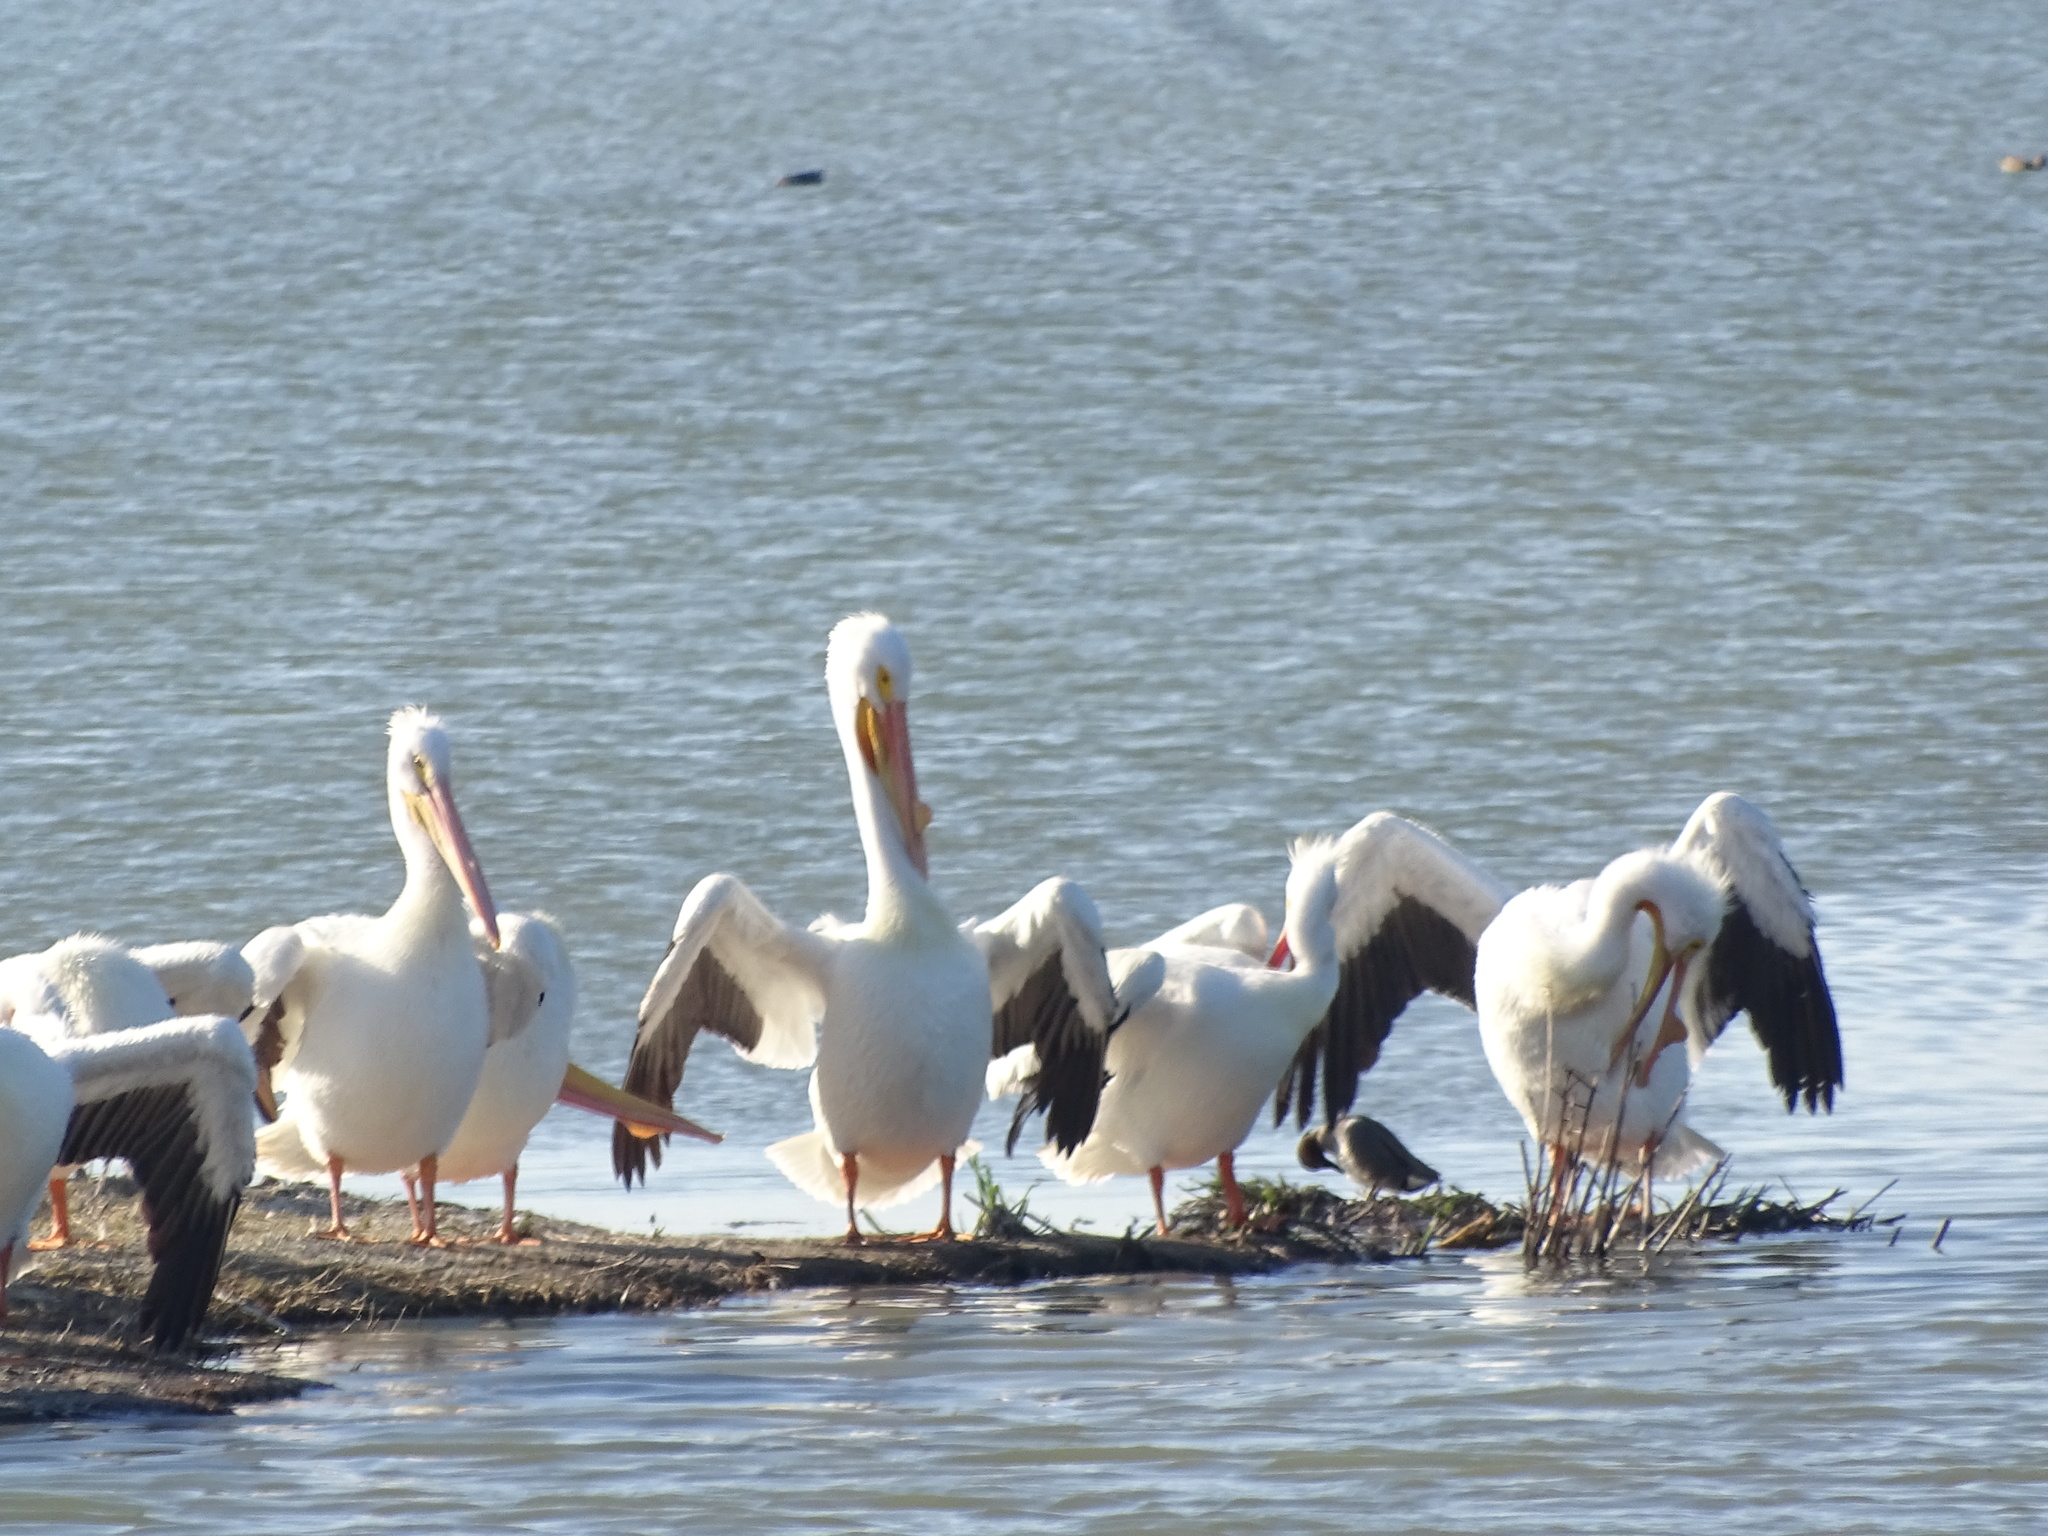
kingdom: Animalia
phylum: Chordata
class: Aves
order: Pelecaniformes
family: Pelecanidae
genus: Pelecanus
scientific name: Pelecanus erythrorhynchos
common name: American white pelican
